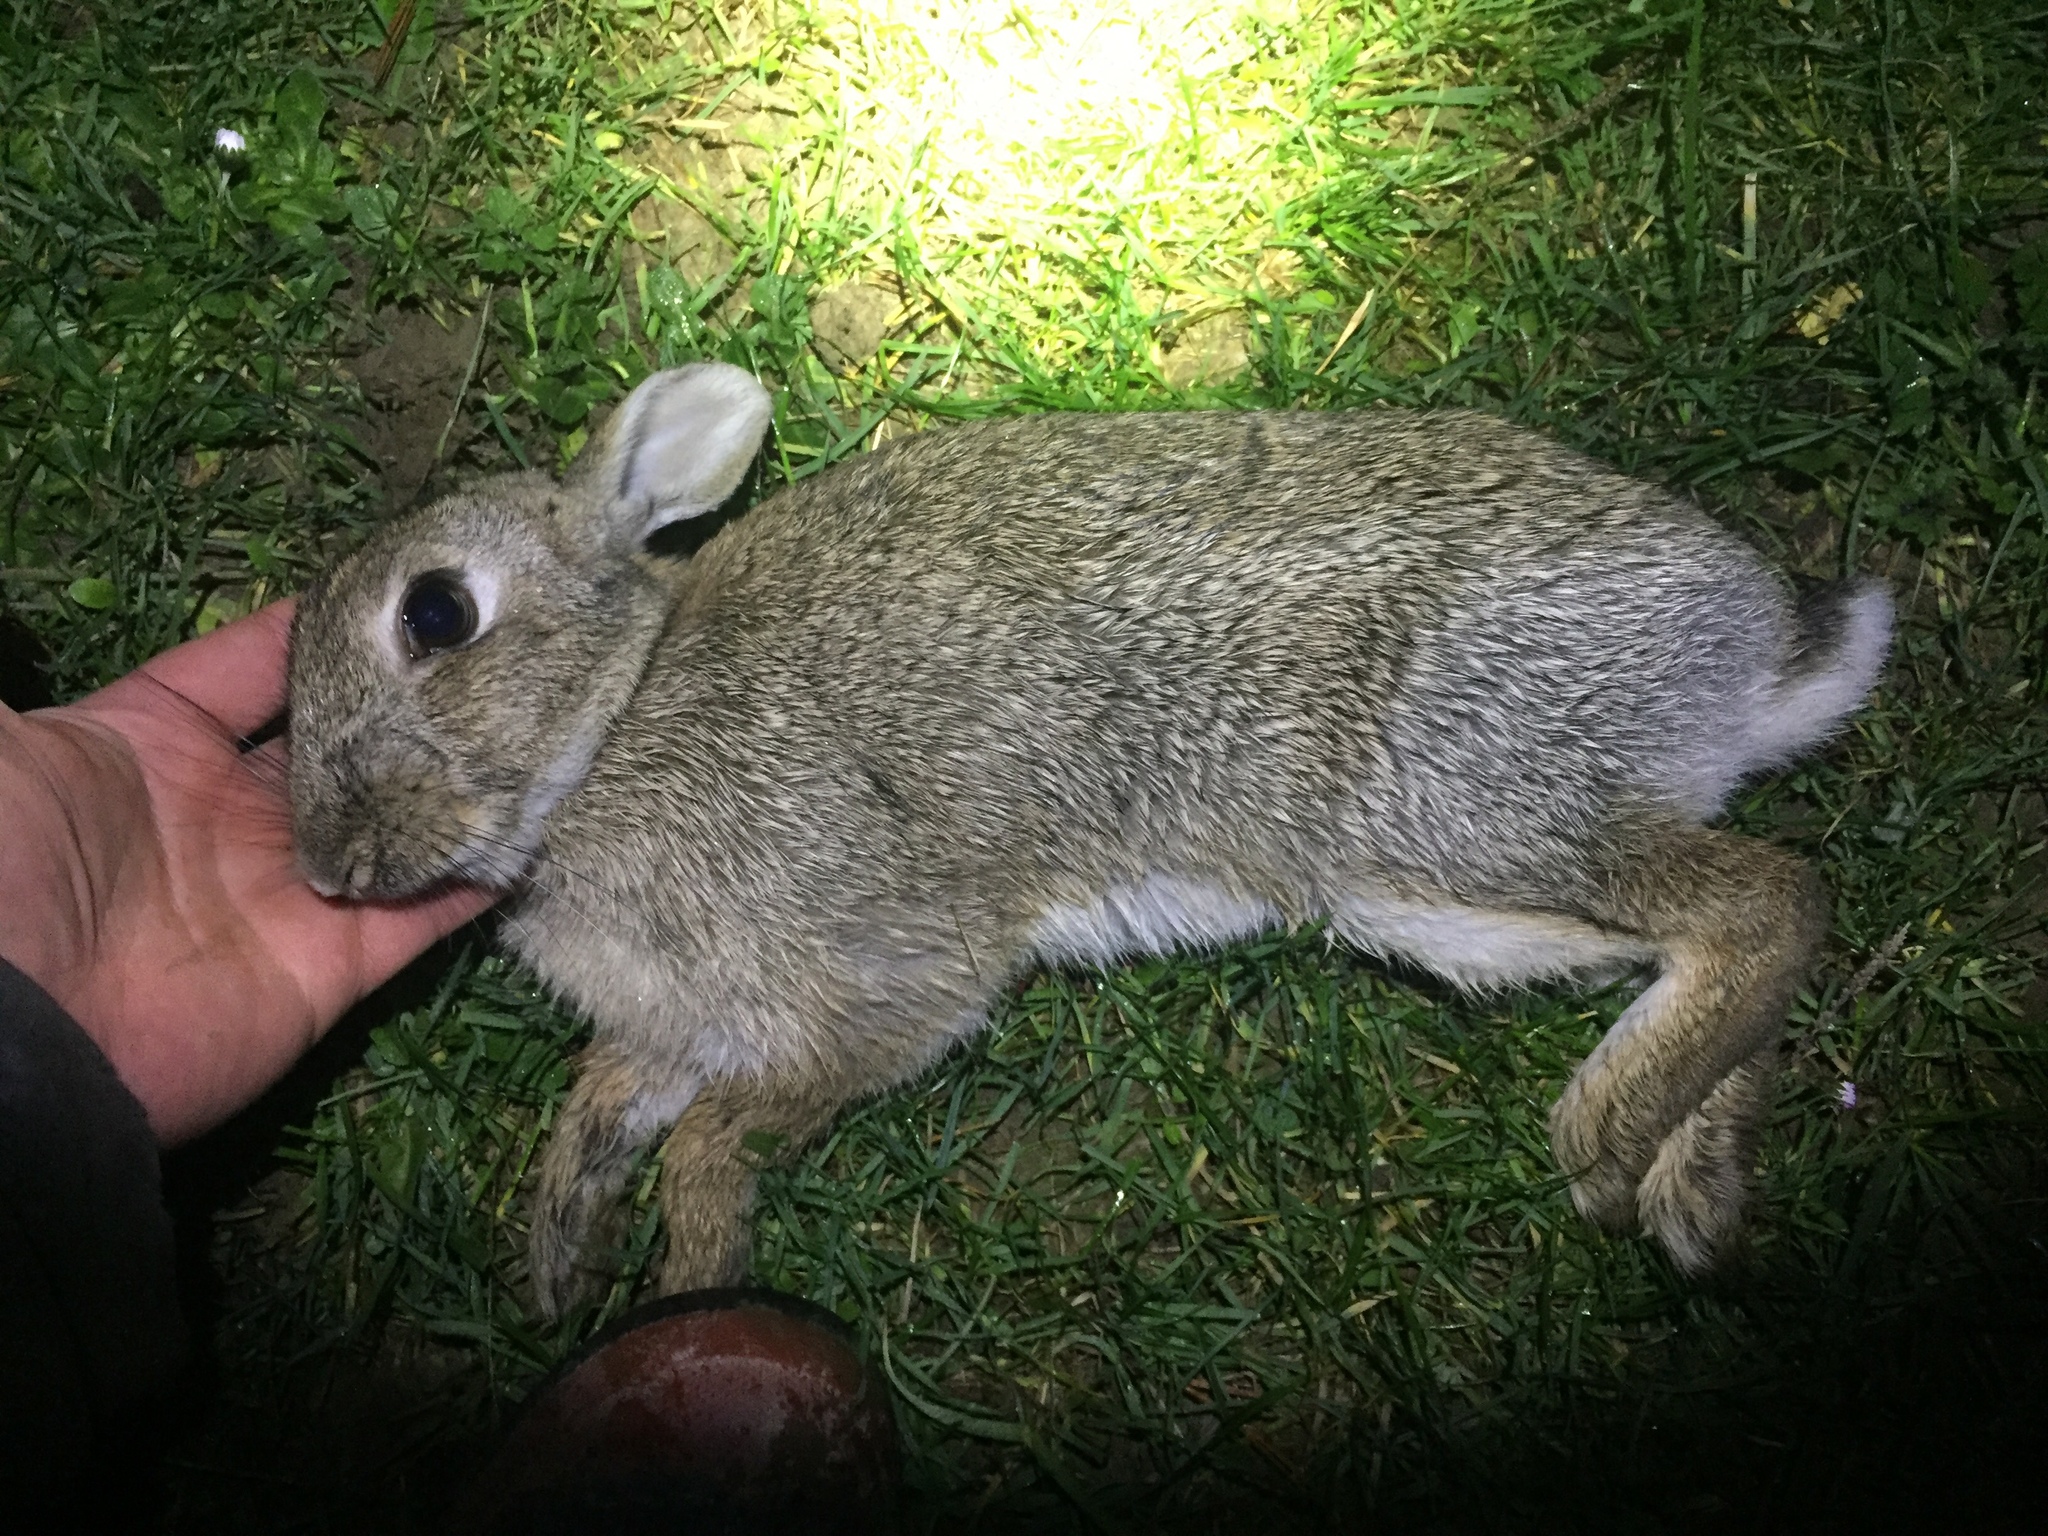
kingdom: Animalia
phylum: Chordata
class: Mammalia
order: Lagomorpha
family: Leporidae
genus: Oryctolagus
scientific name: Oryctolagus cuniculus
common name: European rabbit
